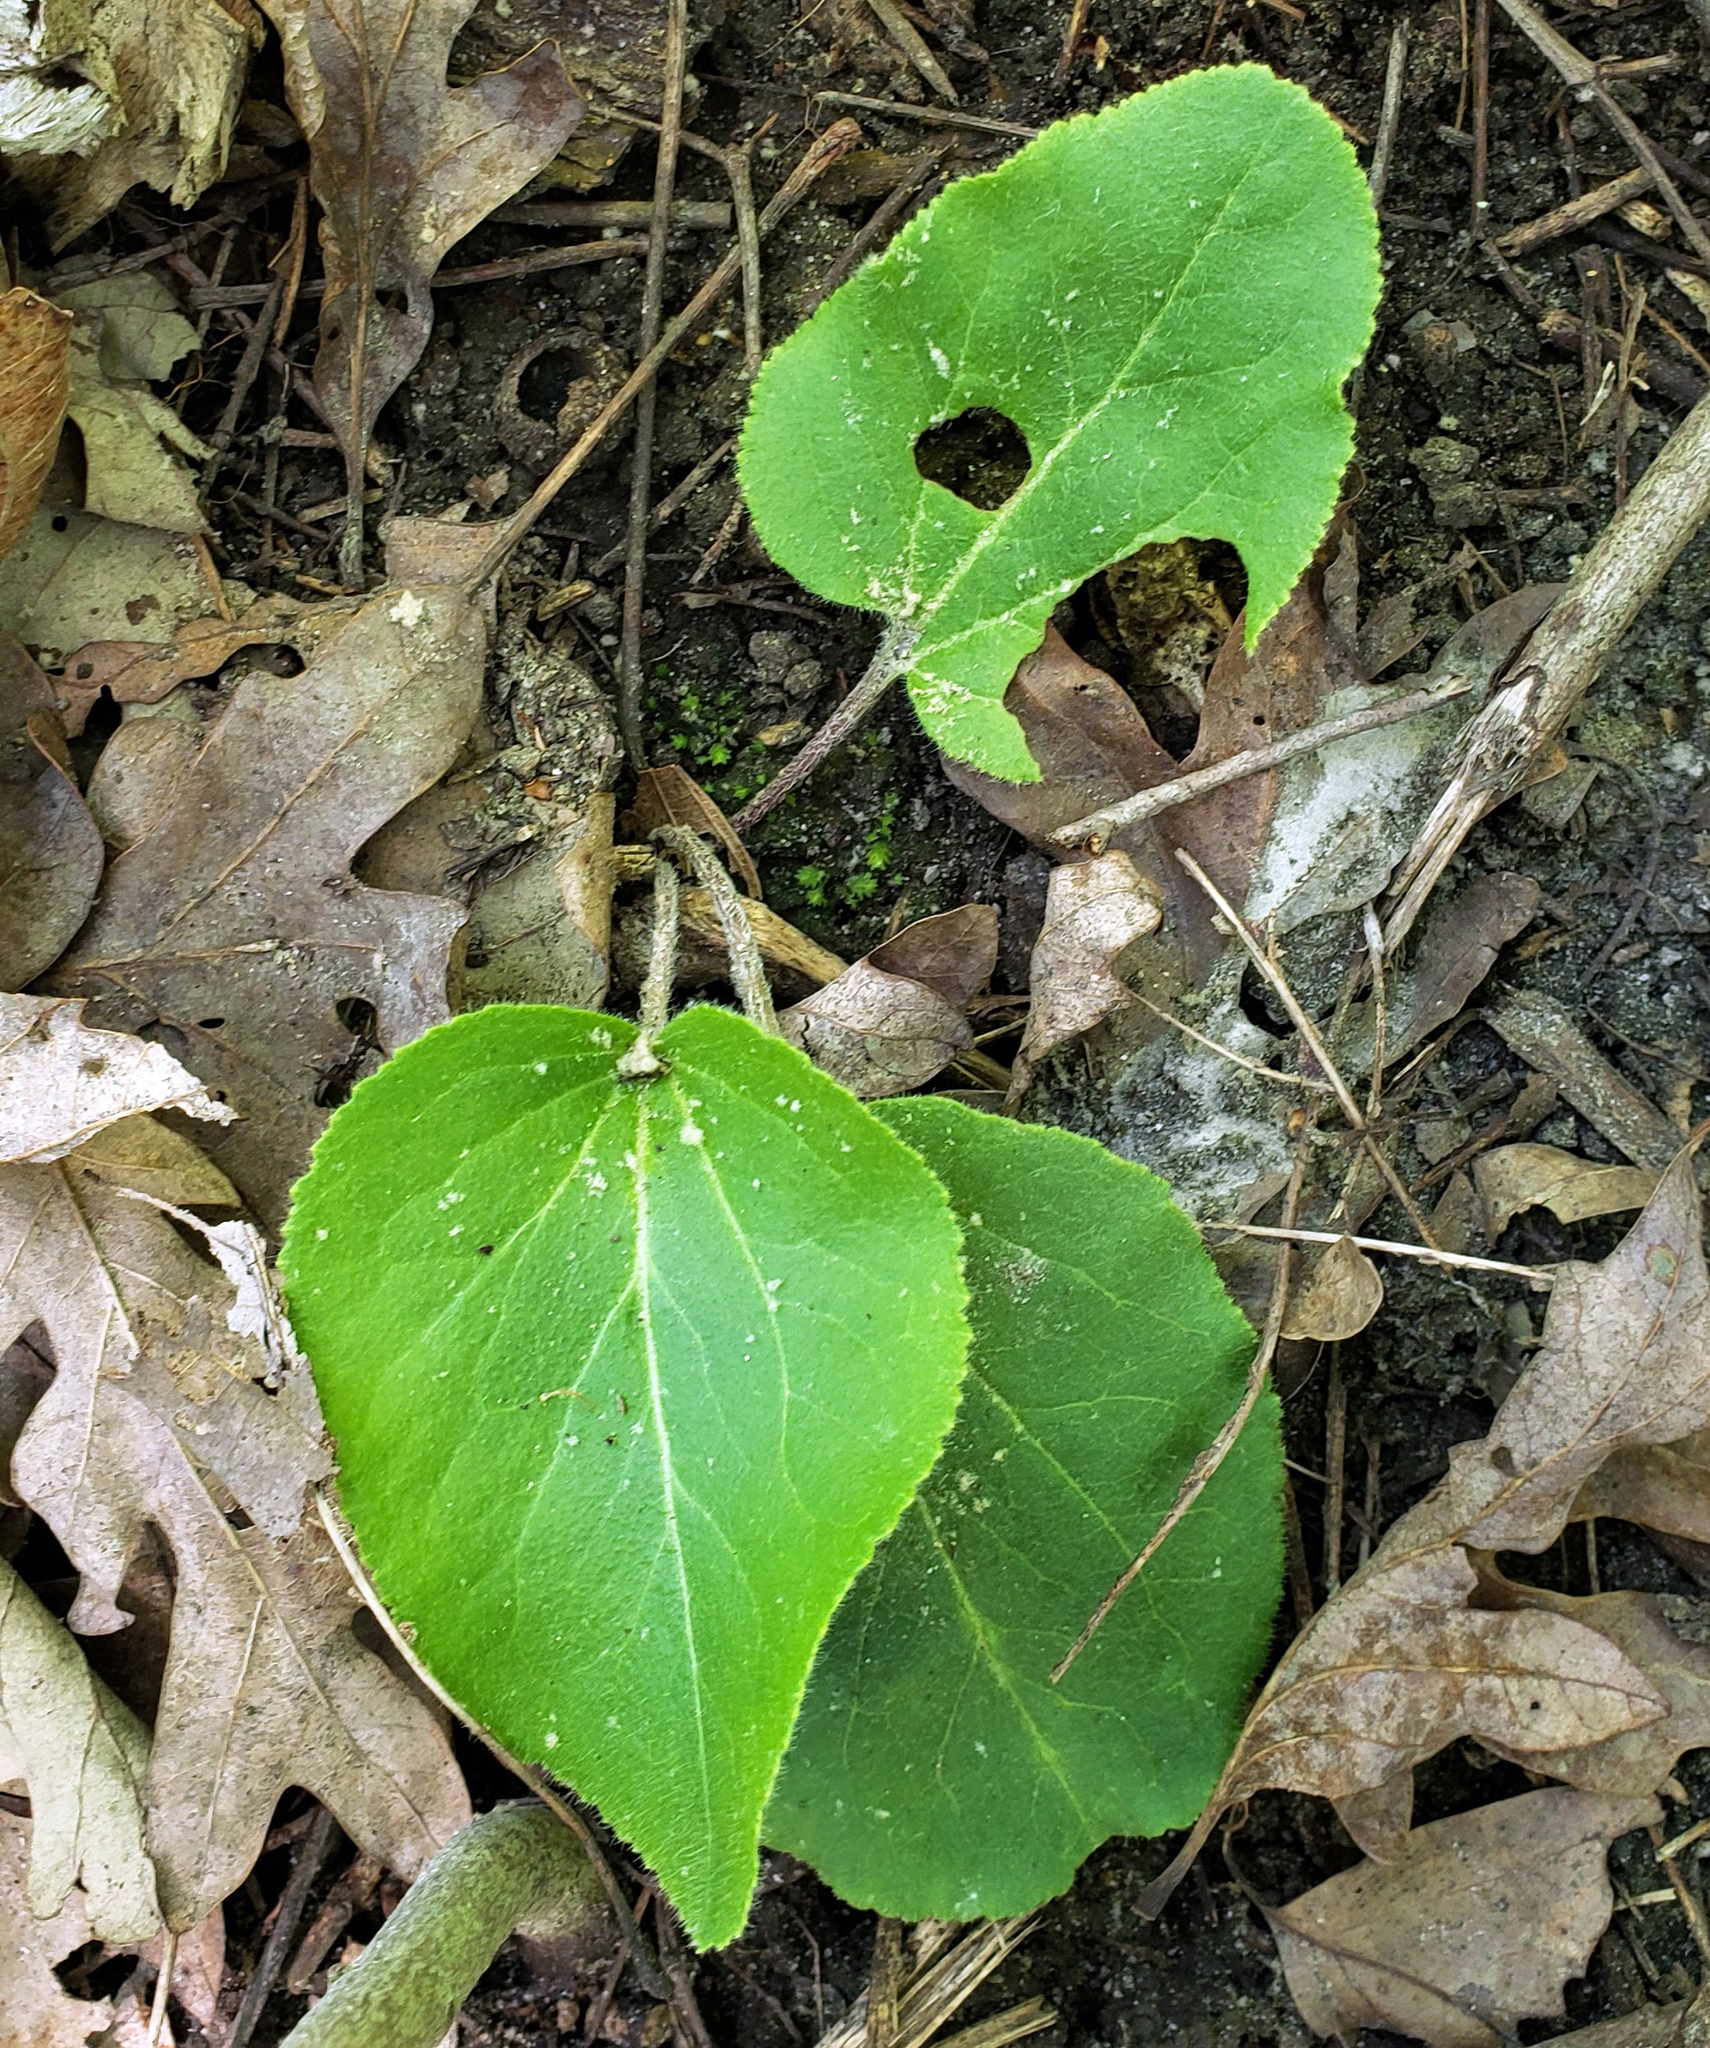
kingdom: Plantae
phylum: Tracheophyta
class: Magnoliopsida
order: Lamiales
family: Plantaginaceae
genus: Synthyris
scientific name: Synthyris bullii
